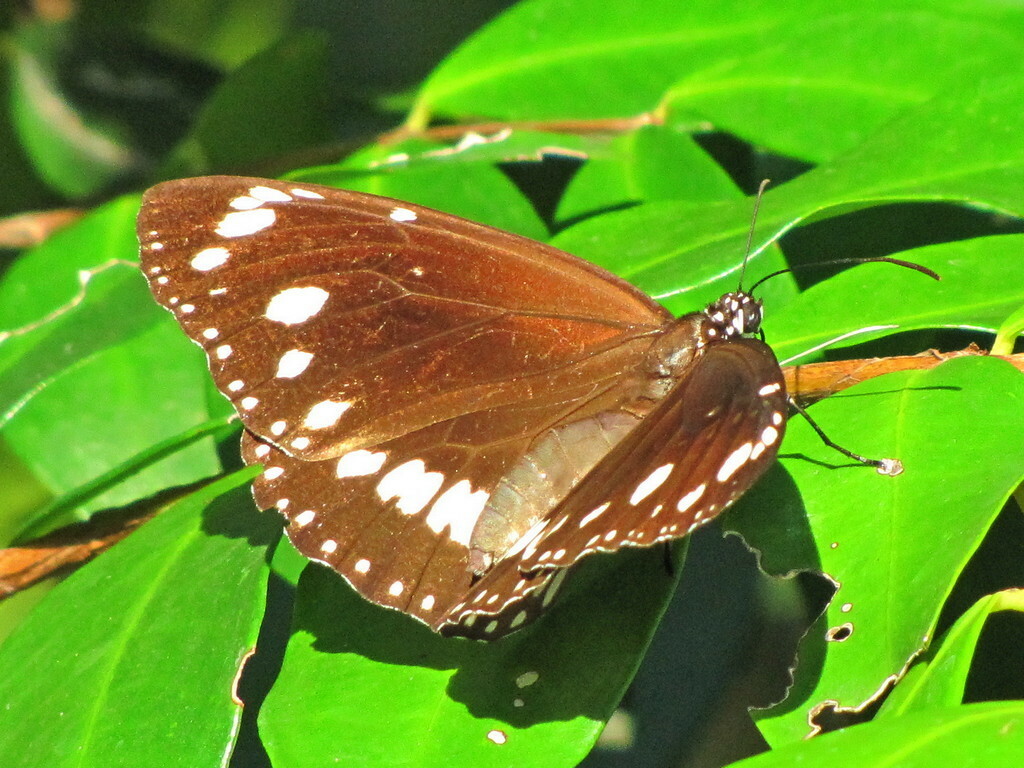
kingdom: Animalia
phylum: Arthropoda
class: Insecta
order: Lepidoptera
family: Nymphalidae
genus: Euploea
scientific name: Euploea core
